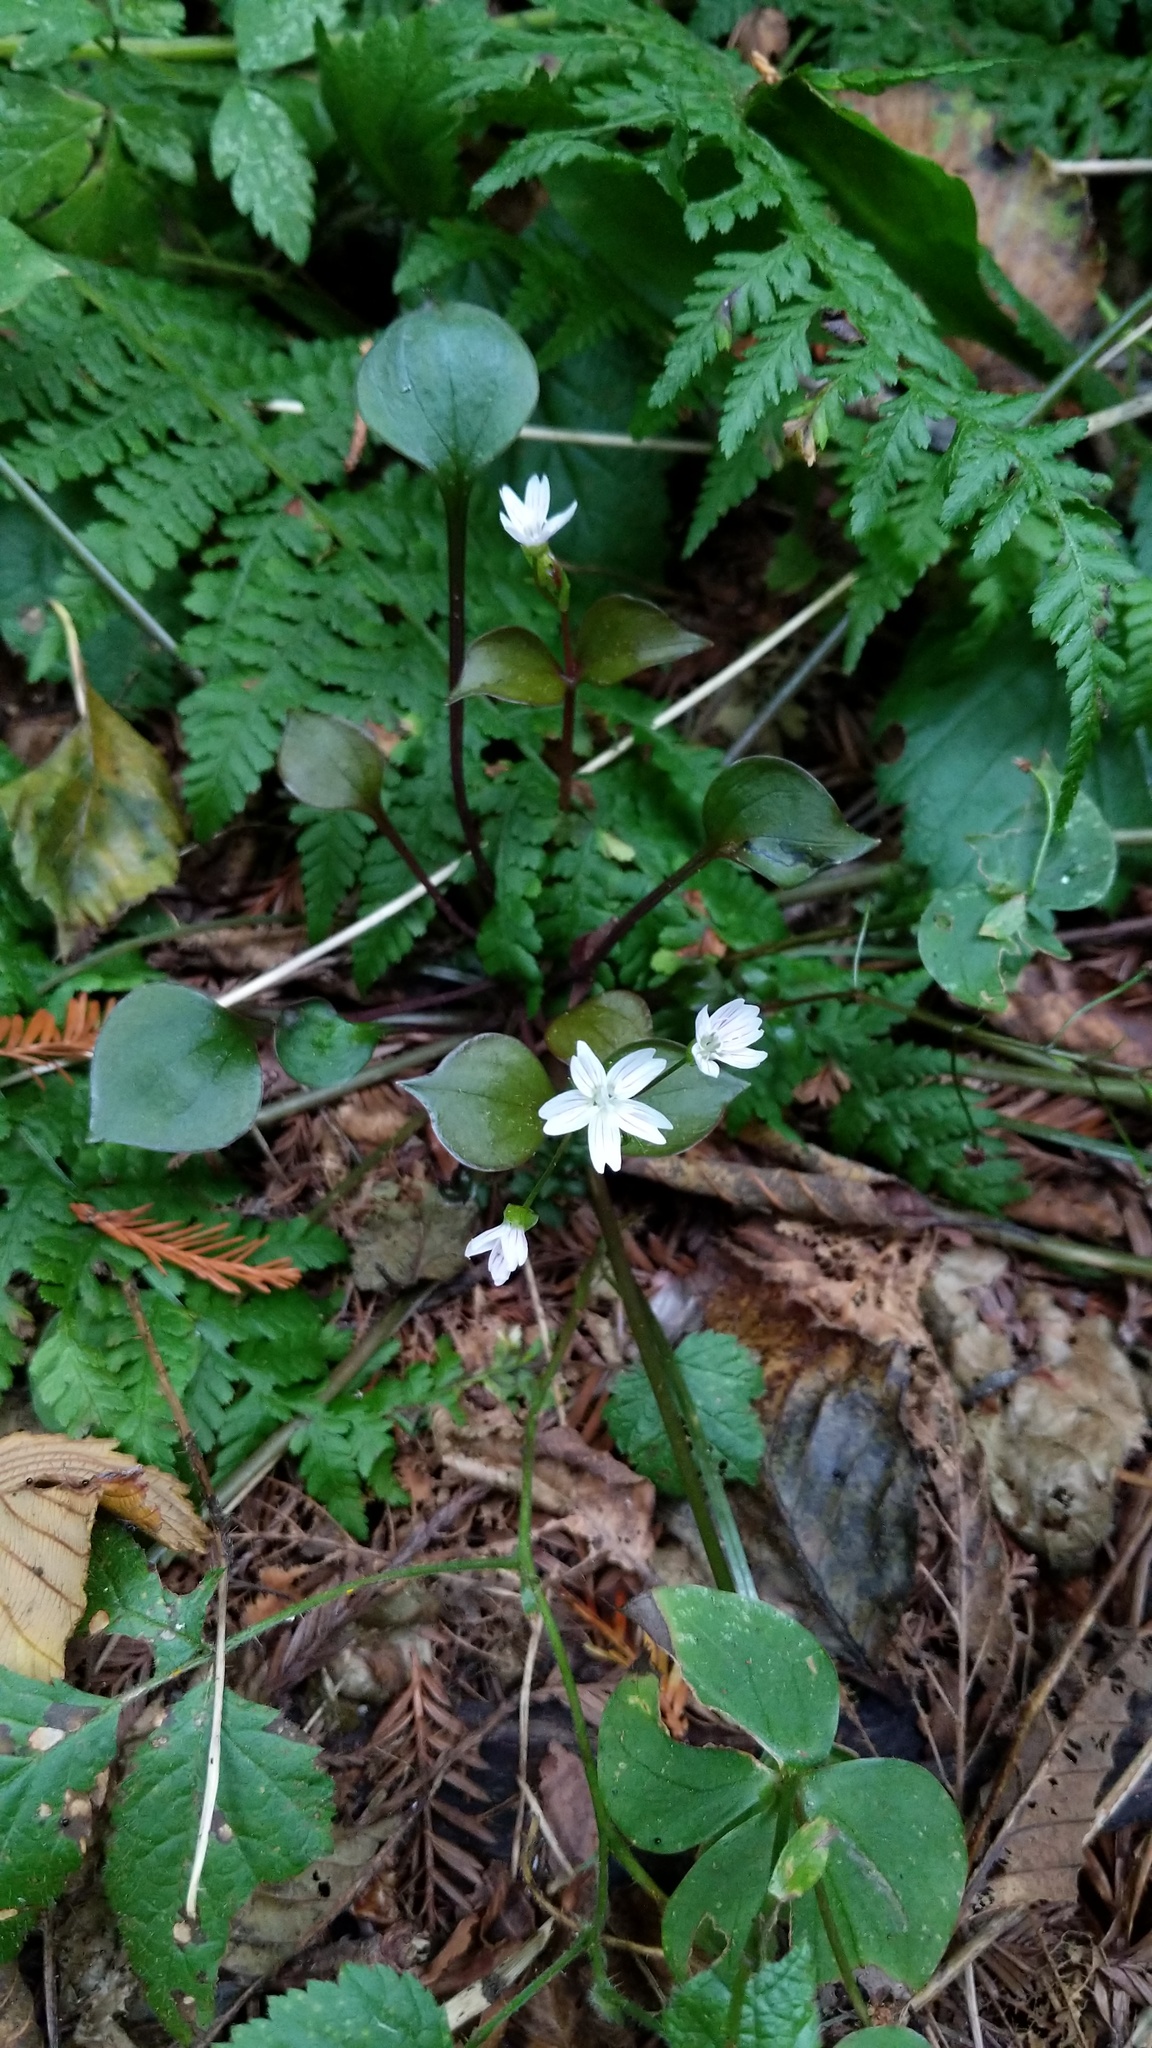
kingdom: Plantae
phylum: Tracheophyta
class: Magnoliopsida
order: Caryophyllales
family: Montiaceae
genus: Claytonia
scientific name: Claytonia sibirica
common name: Pink purslane
